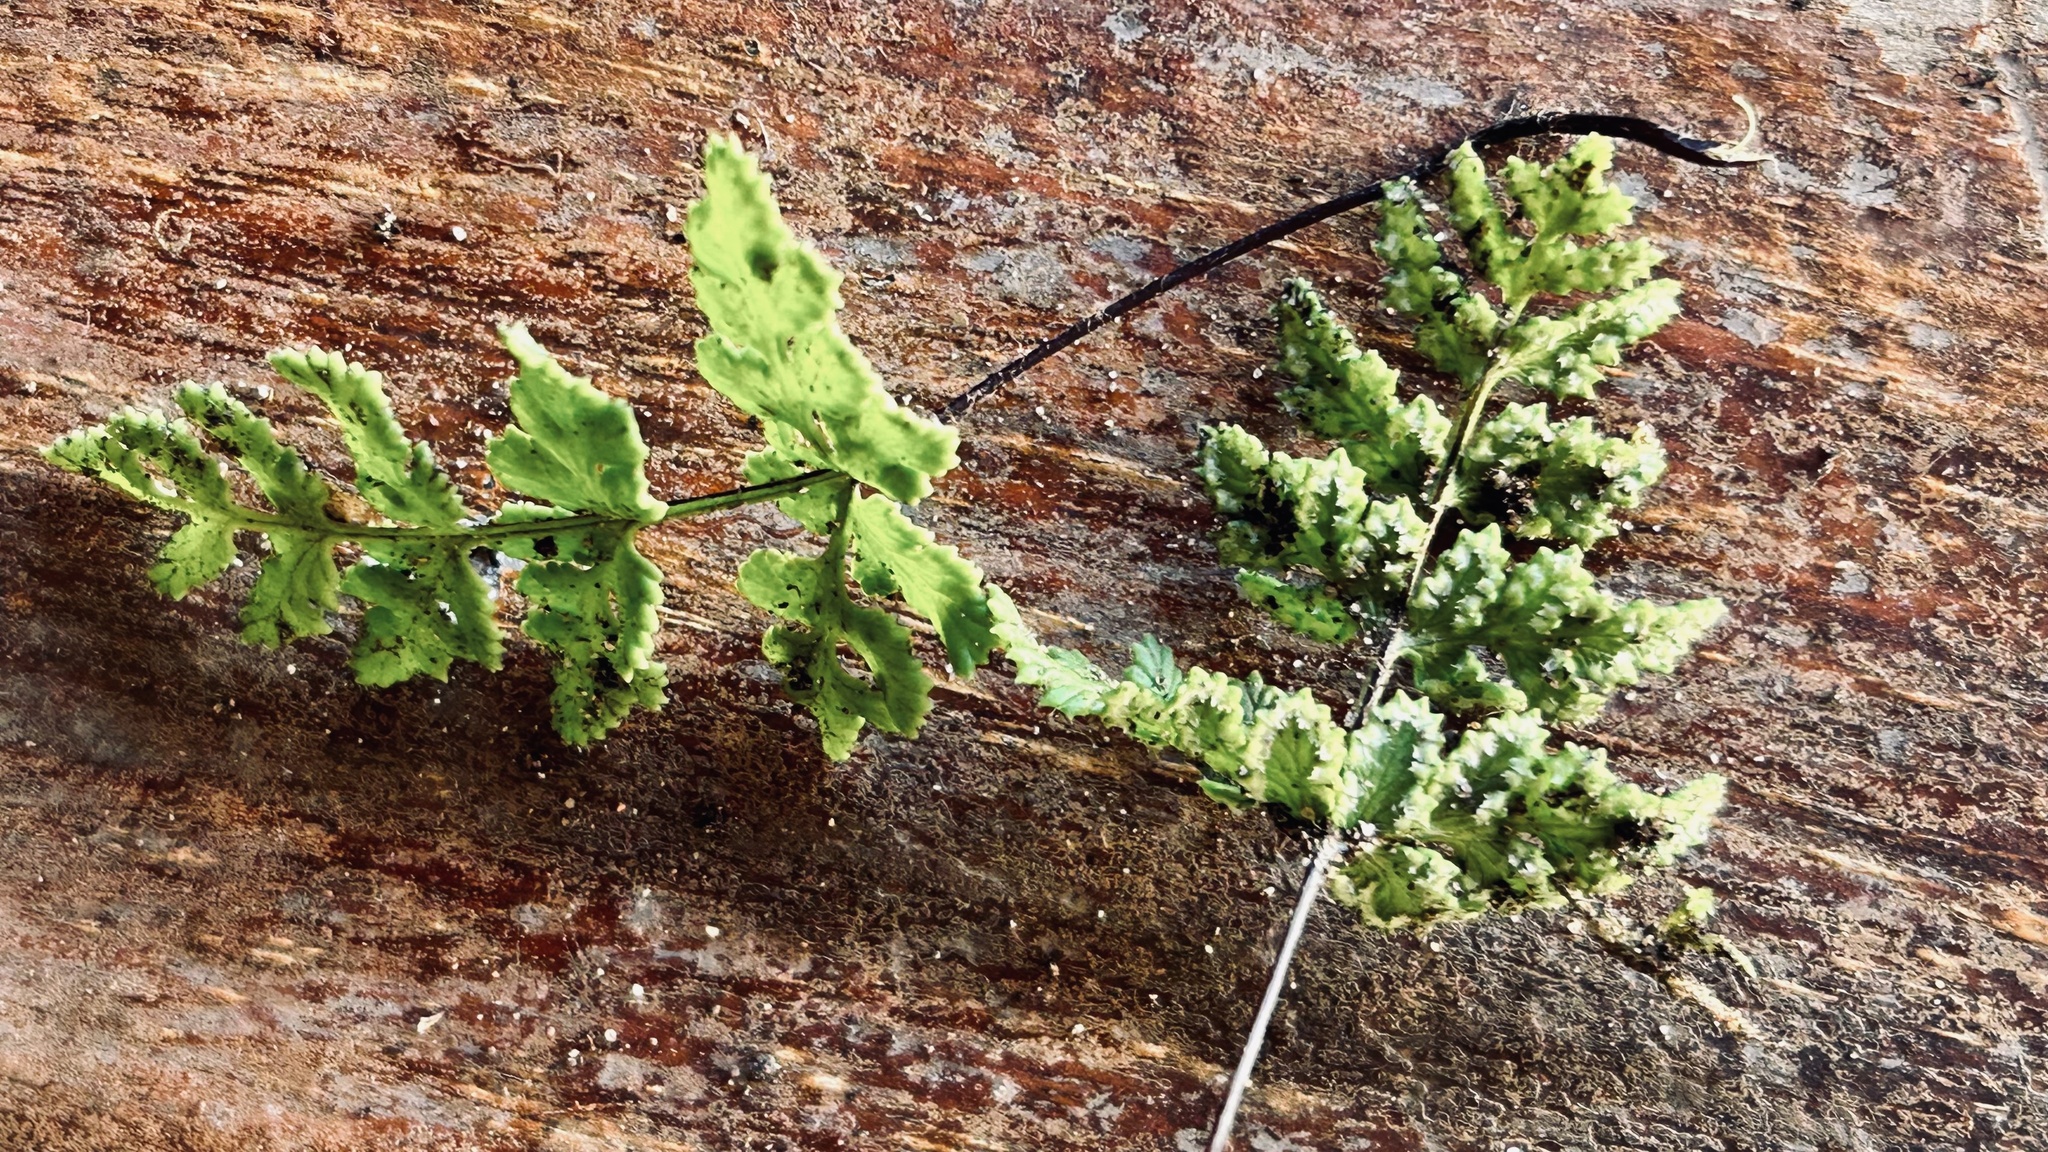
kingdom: Plantae
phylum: Tracheophyta
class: Polypodiopsida
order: Polypodiales
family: Pteridaceae
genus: Cheilanthes
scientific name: Cheilanthes capensis
